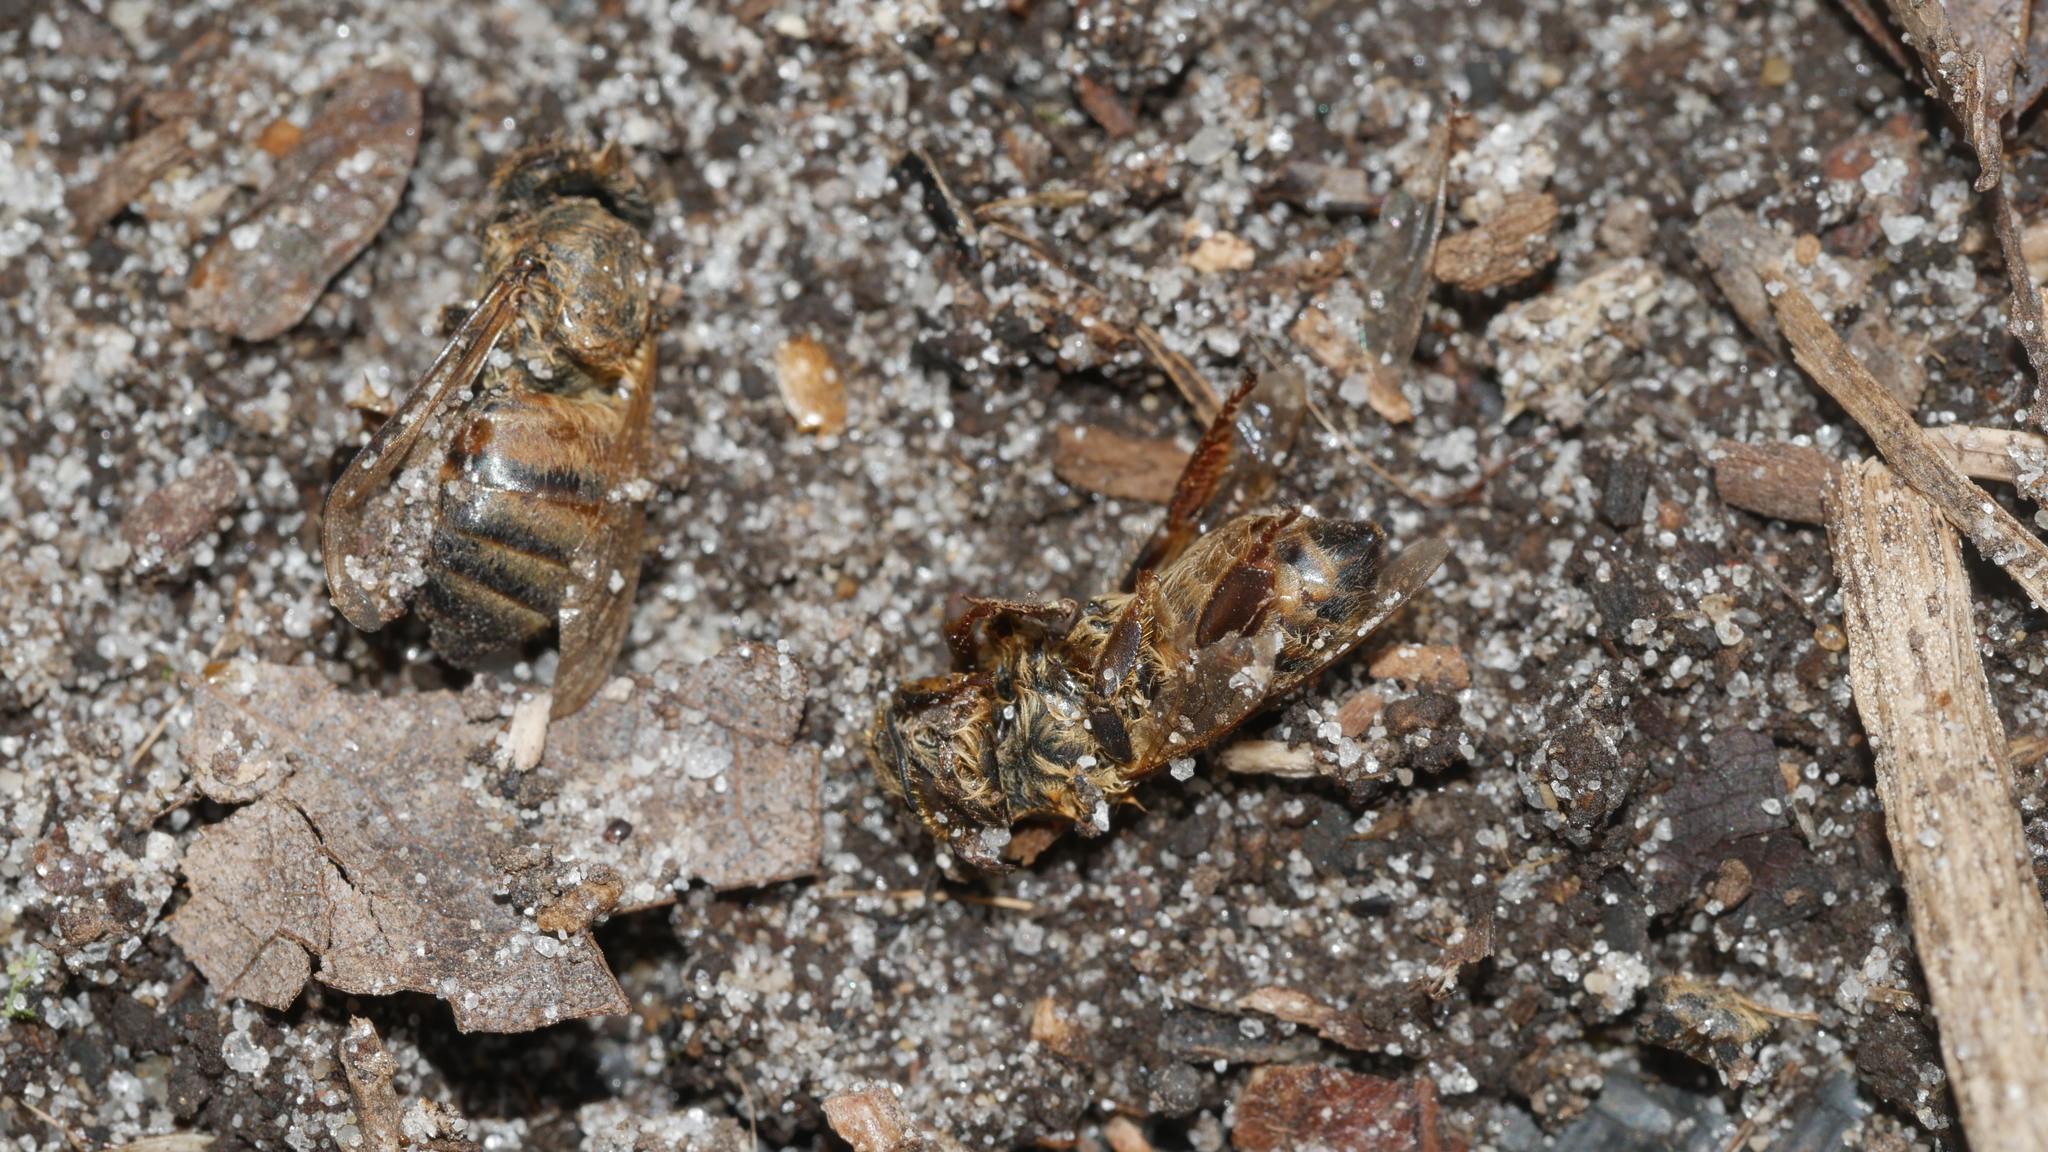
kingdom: Animalia
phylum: Arthropoda
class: Insecta
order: Hymenoptera
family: Apidae
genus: Apis
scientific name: Apis mellifera
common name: Honey bee
